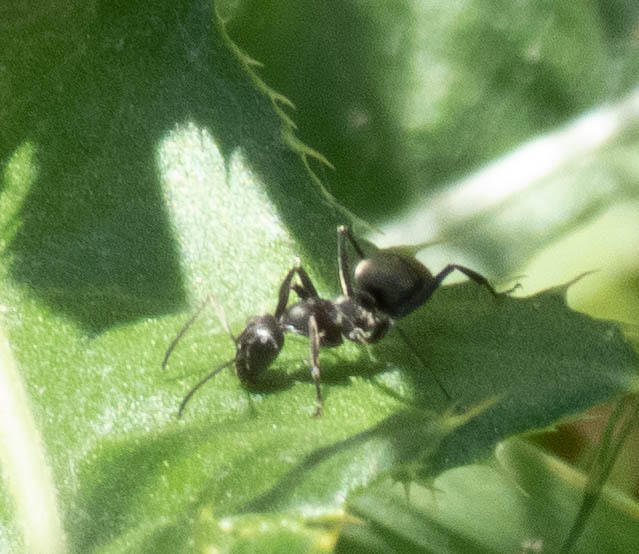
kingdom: Animalia
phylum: Arthropoda
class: Insecta
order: Hymenoptera
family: Formicidae
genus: Formica
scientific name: Formica
